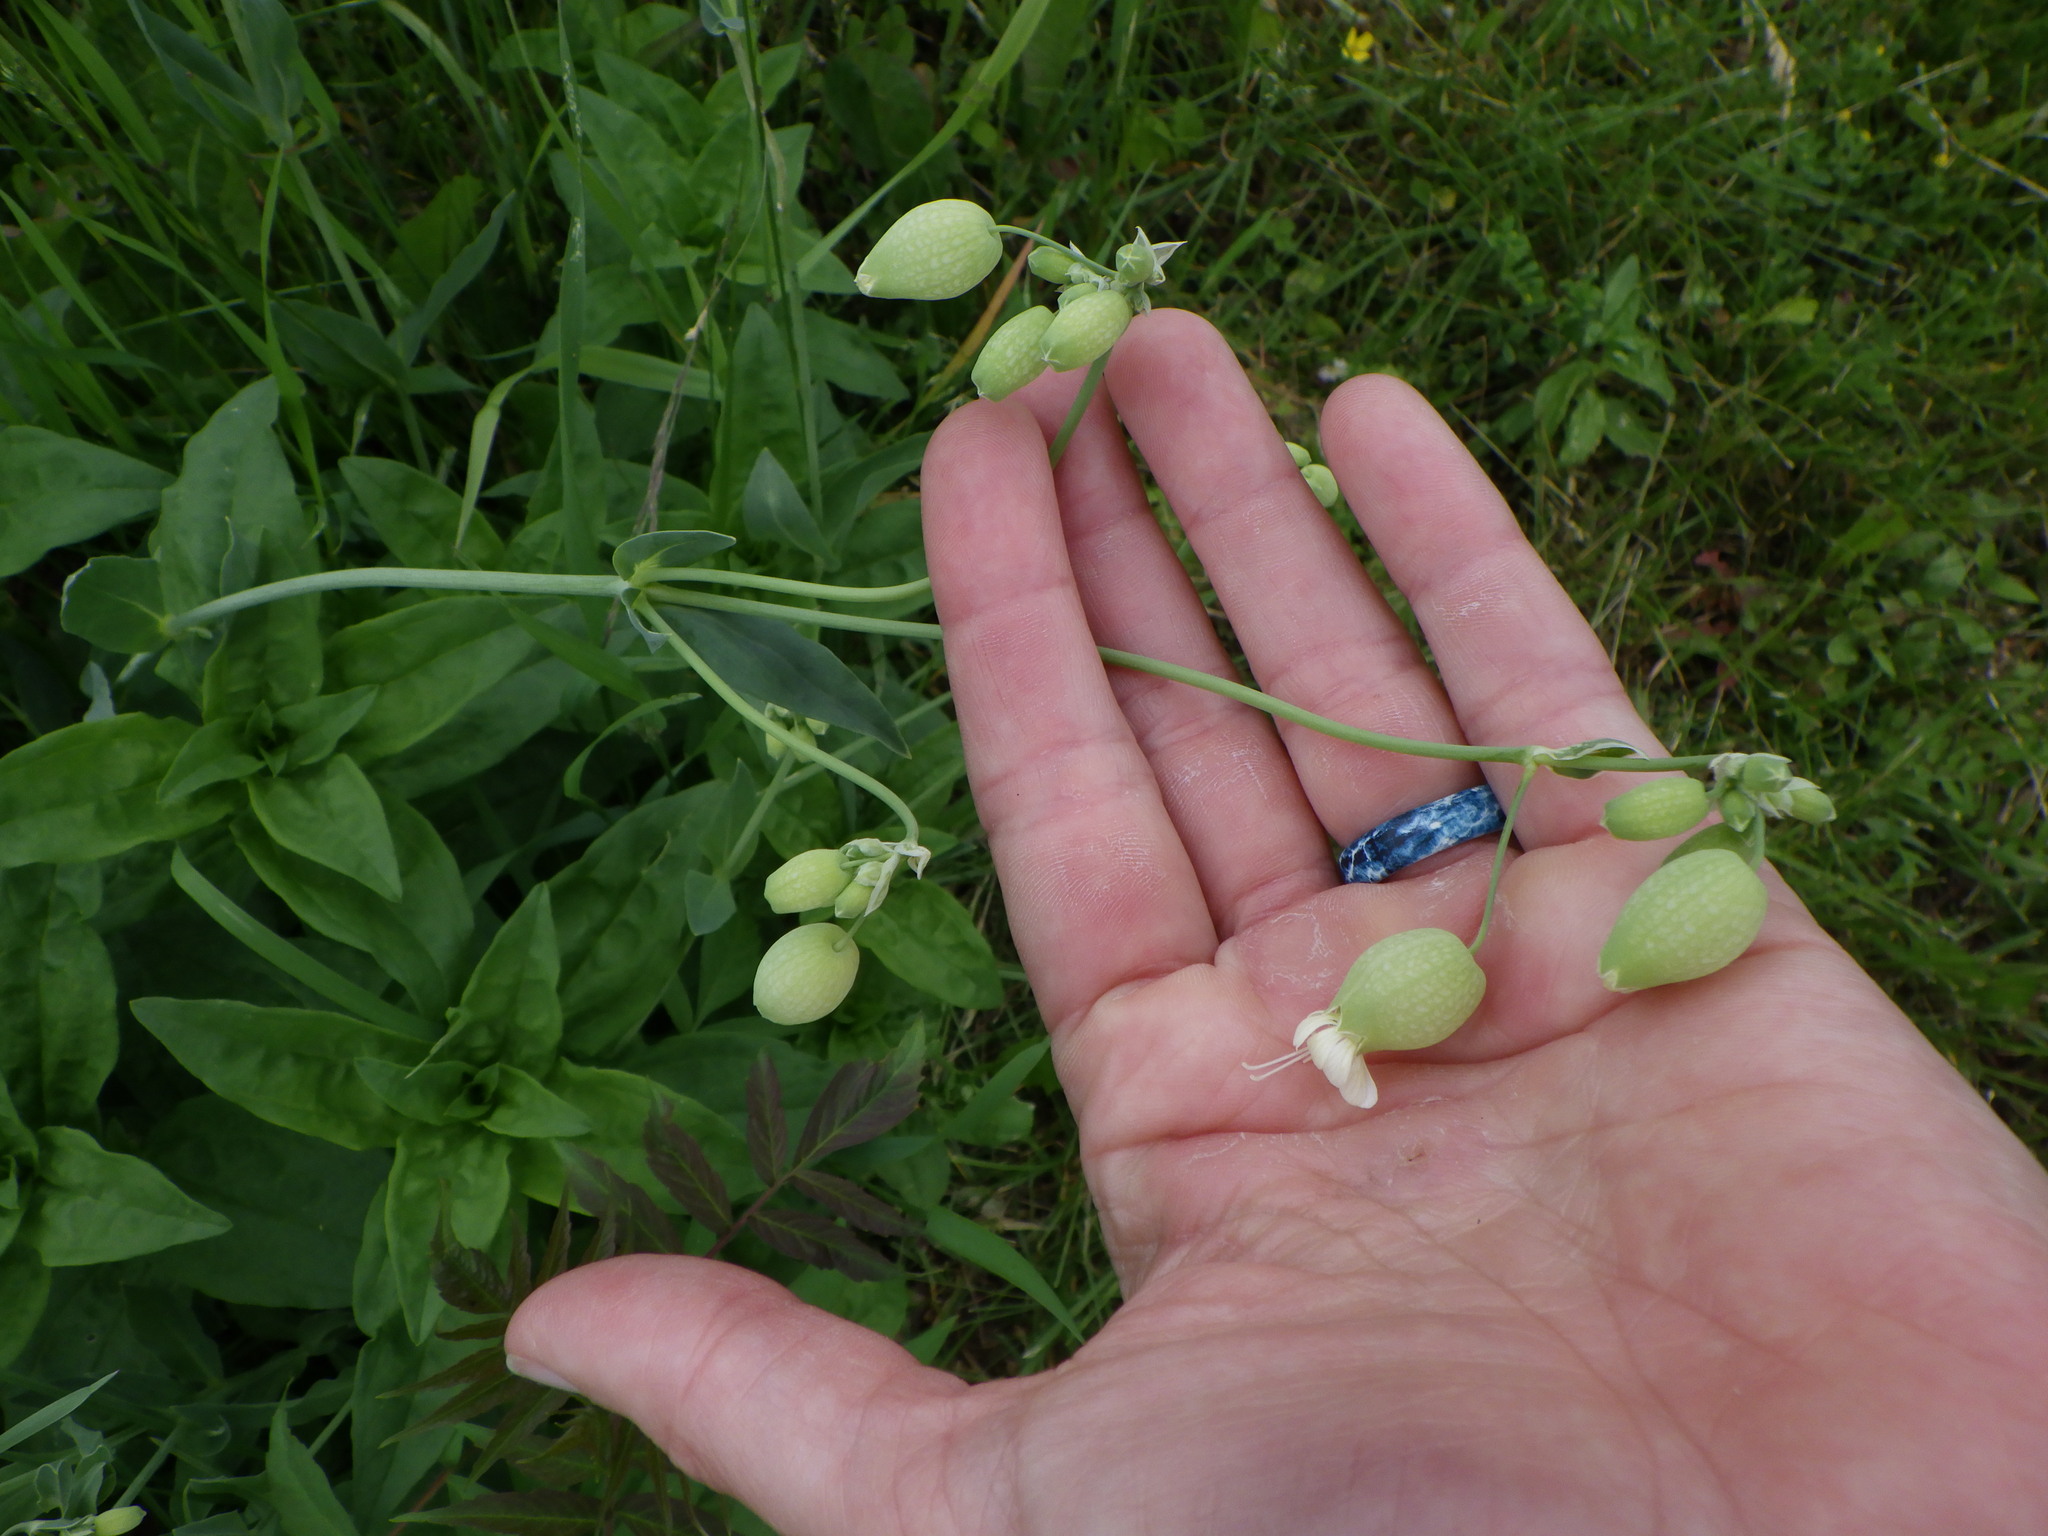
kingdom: Plantae
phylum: Tracheophyta
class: Magnoliopsida
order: Caryophyllales
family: Caryophyllaceae
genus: Silene
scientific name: Silene vulgaris
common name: Bladder campion
